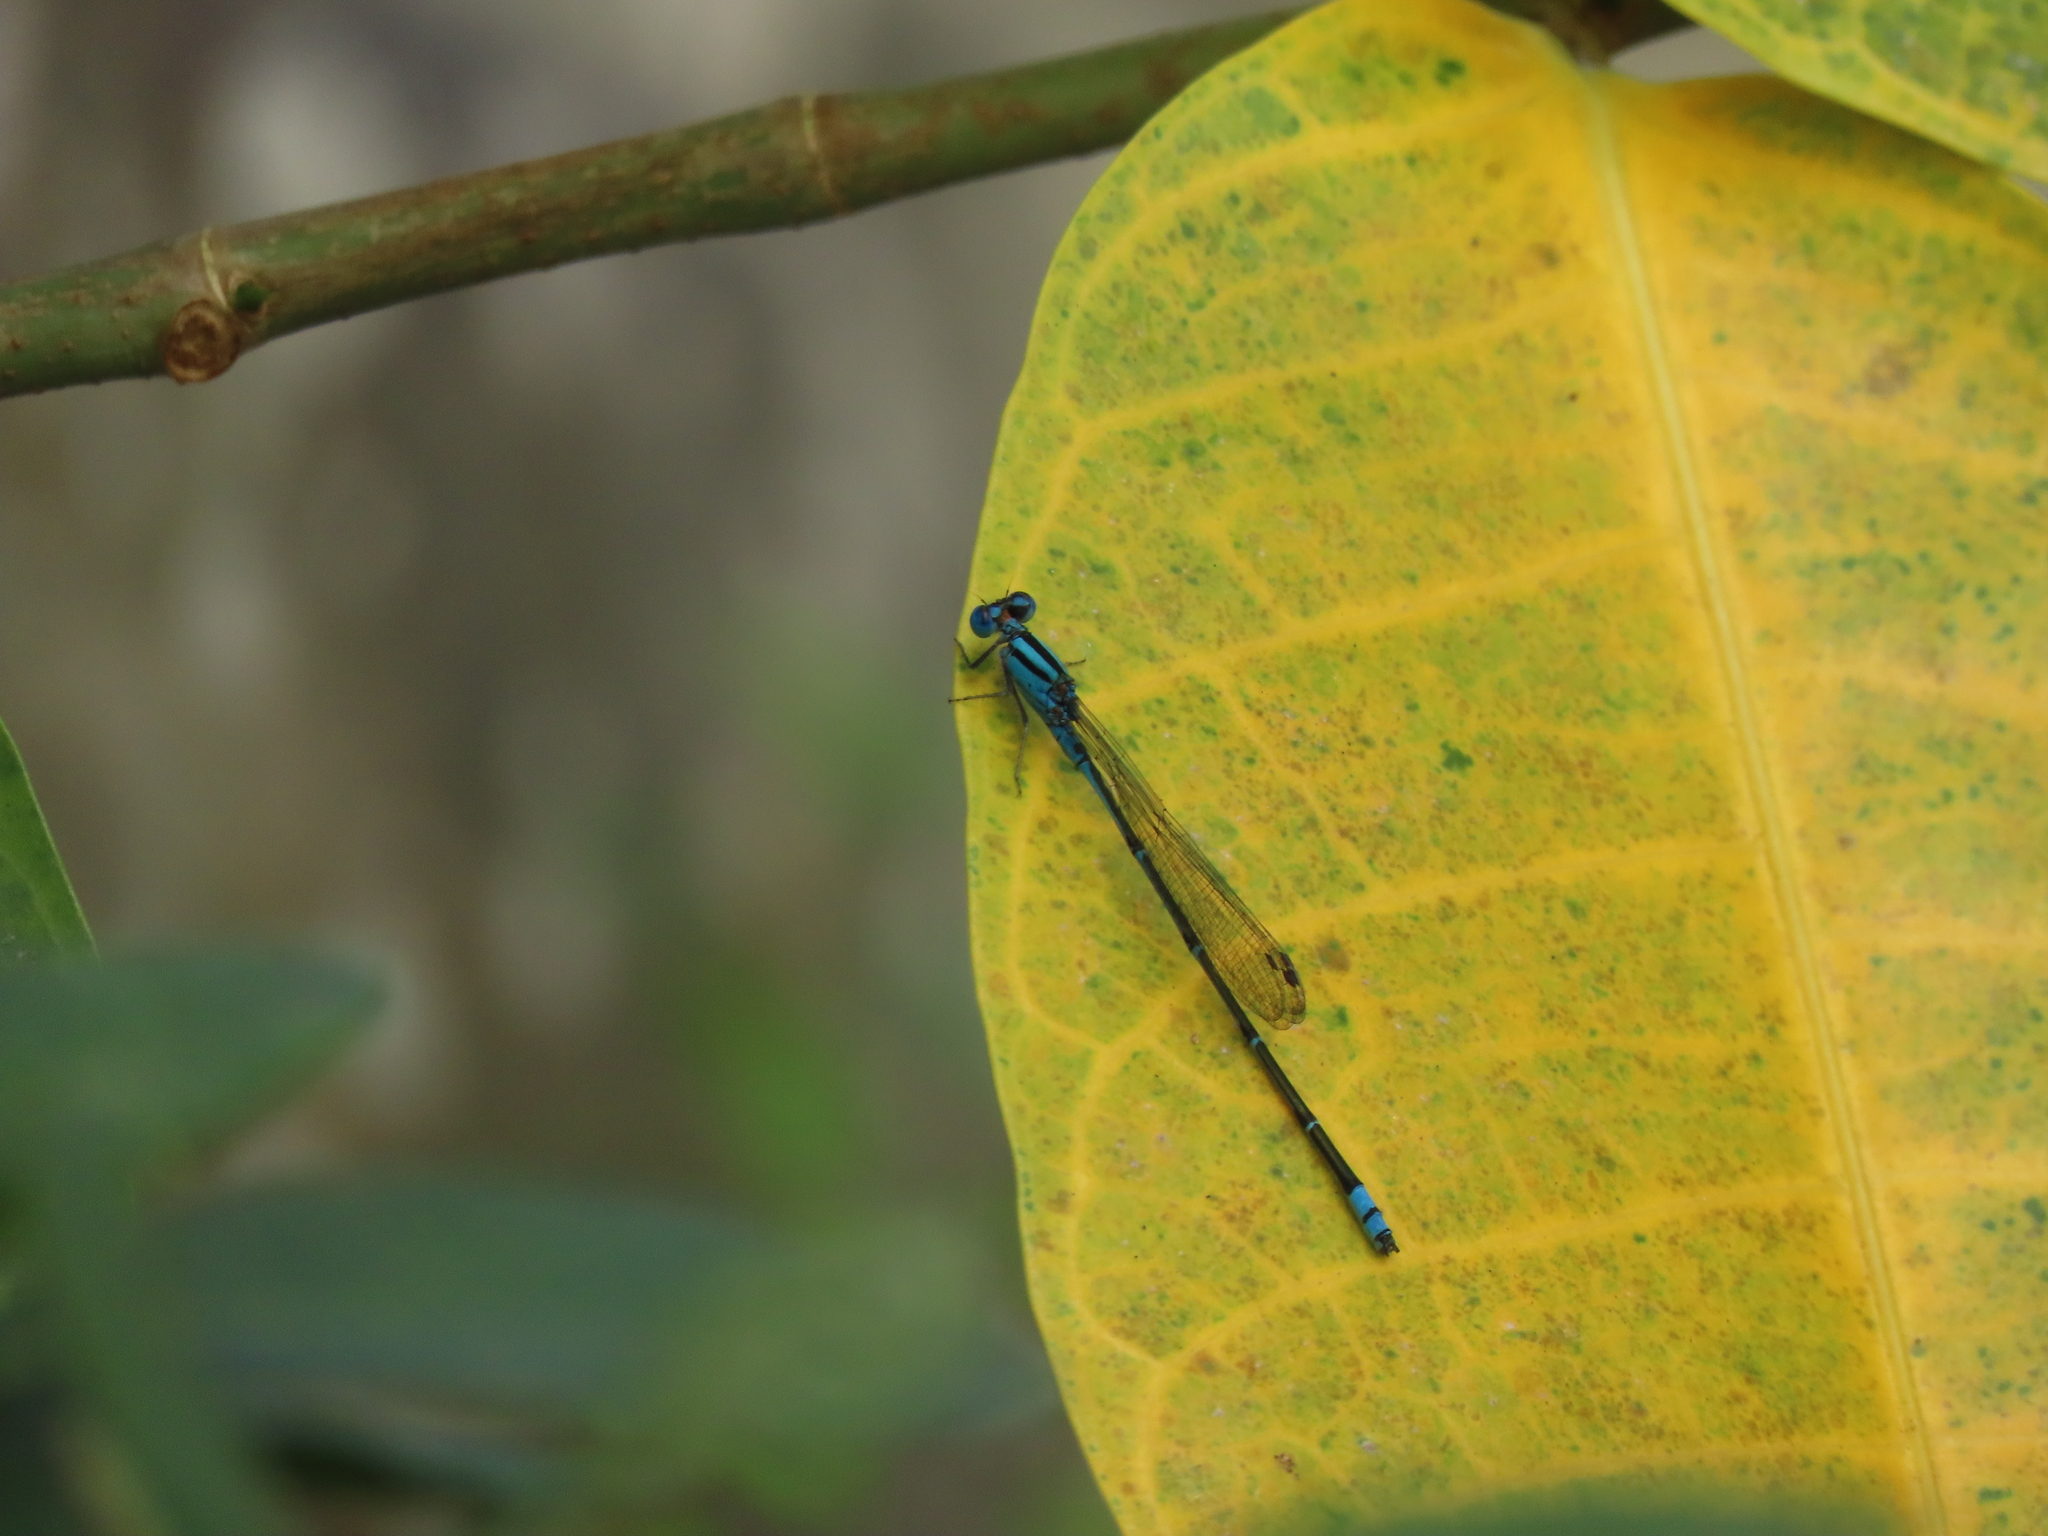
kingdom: Animalia
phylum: Arthropoda
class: Insecta
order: Odonata
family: Coenagrionidae
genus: Pseudagrion
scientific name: Pseudagrion microcephalum
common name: Blue riverdamsel
